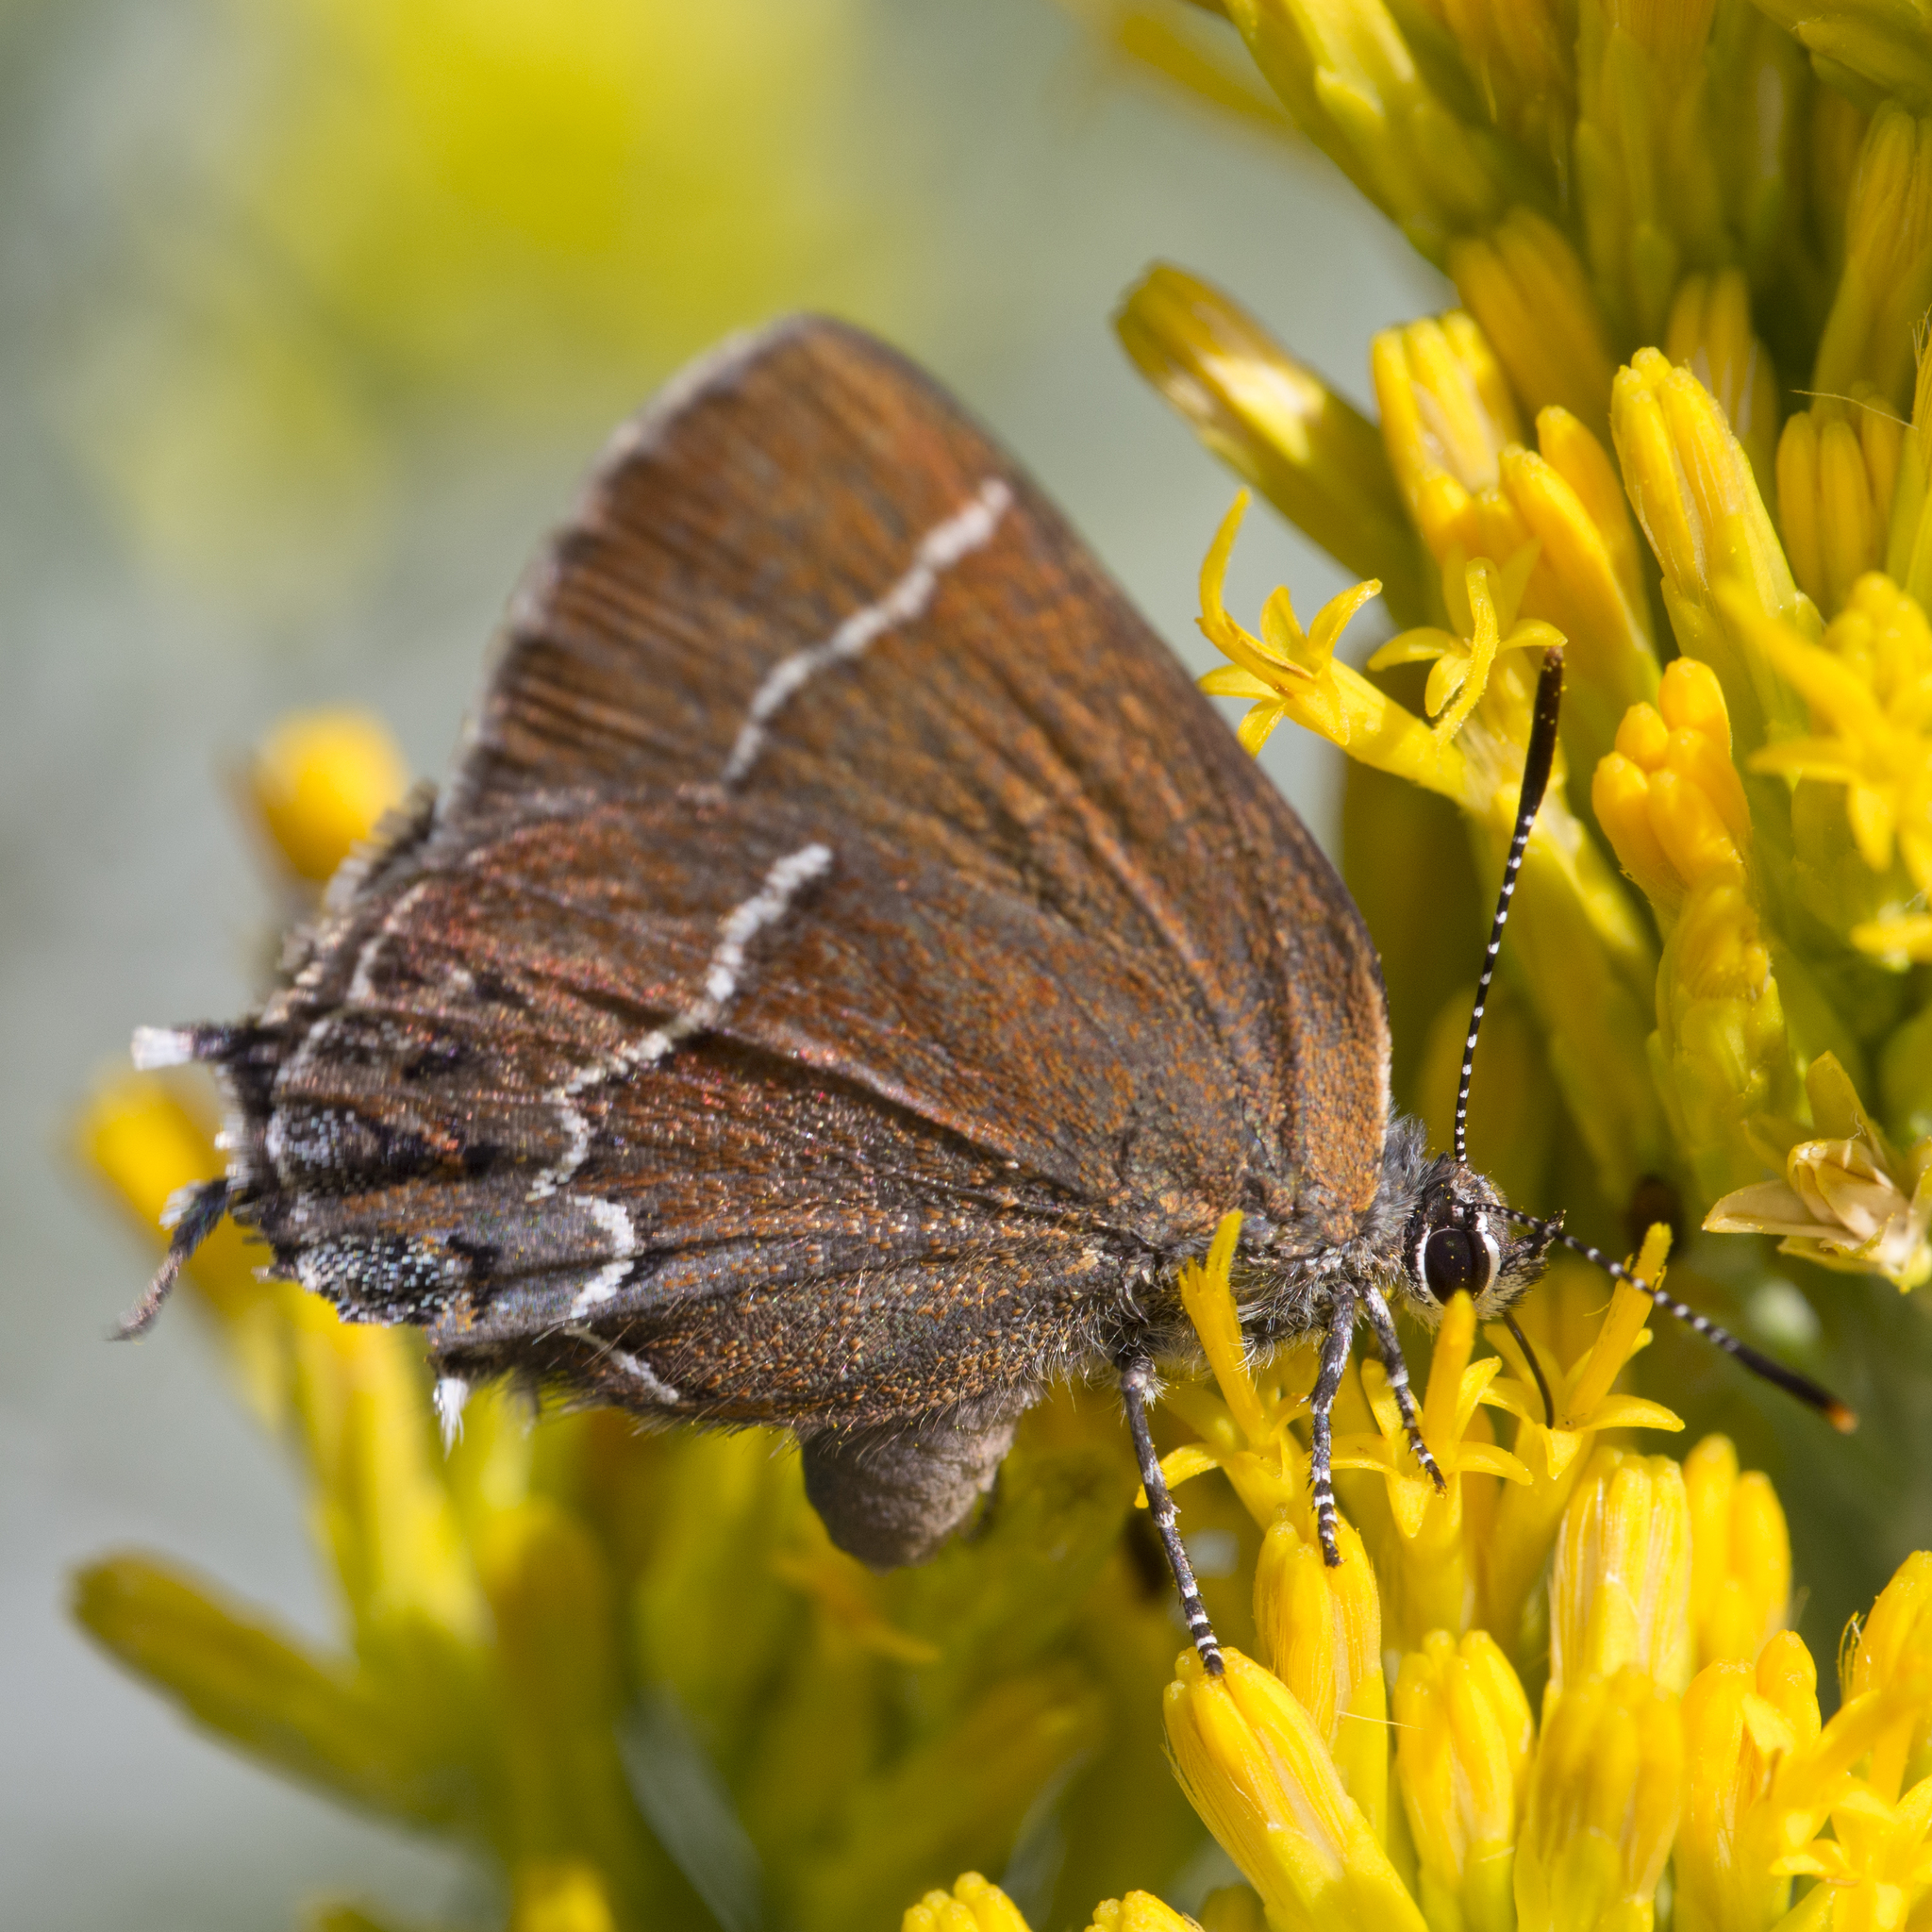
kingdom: Animalia
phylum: Arthropoda
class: Insecta
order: Lepidoptera
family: Lycaenidae
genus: Mitoura
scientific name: Mitoura spinetorum
